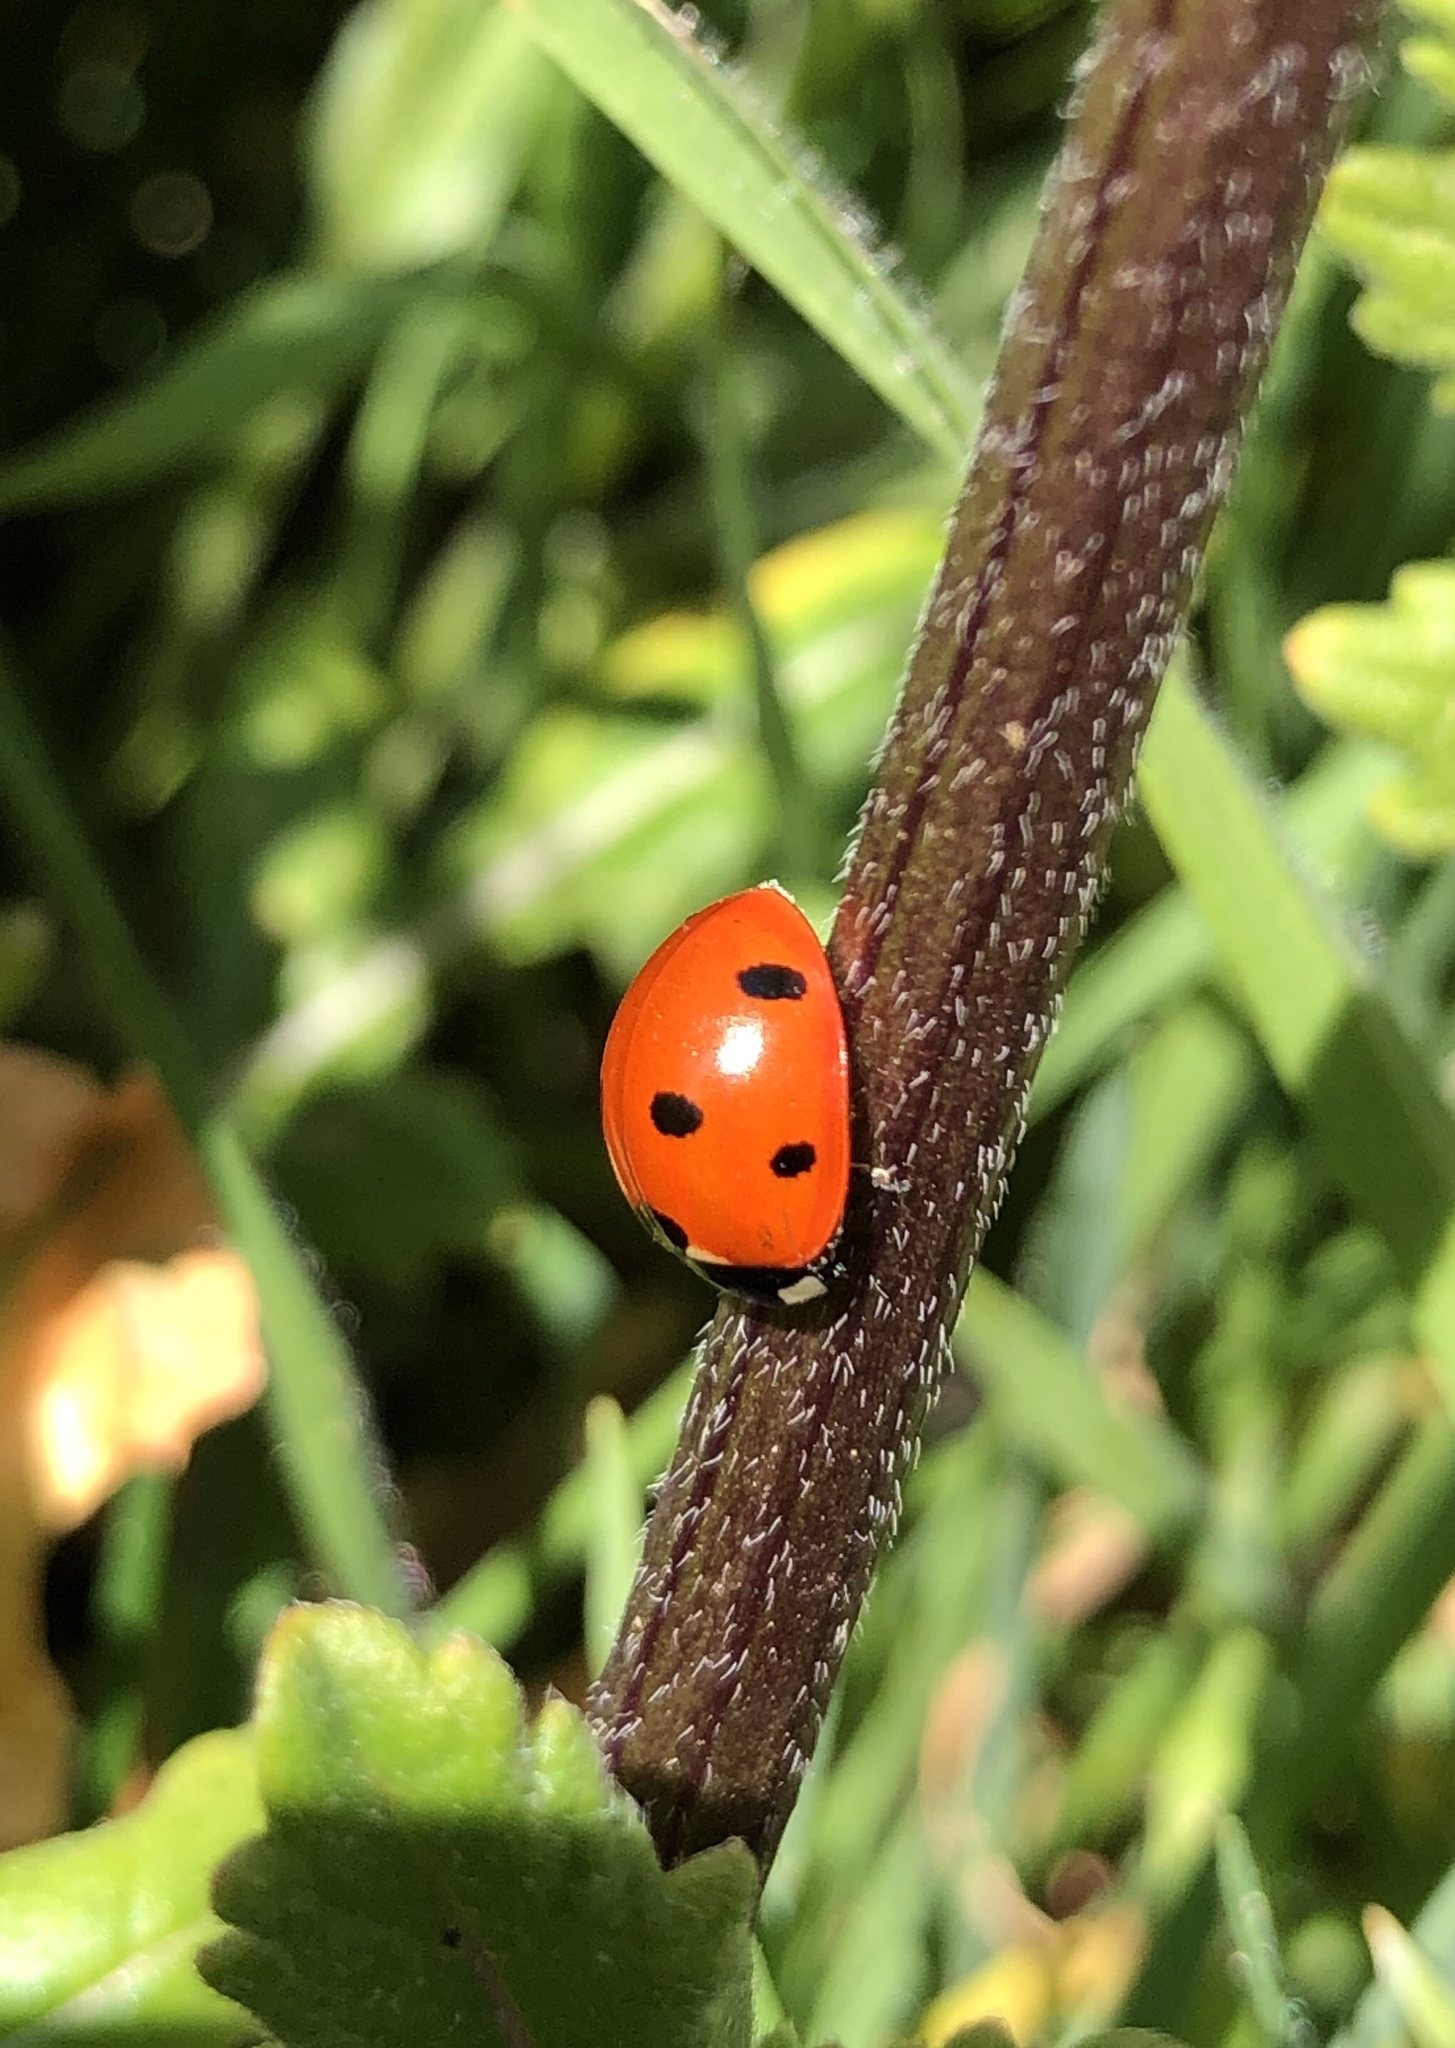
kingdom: Animalia
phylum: Arthropoda
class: Insecta
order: Coleoptera
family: Coccinellidae
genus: Coccinella
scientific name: Coccinella septempunctata
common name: Sevenspotted lady beetle
